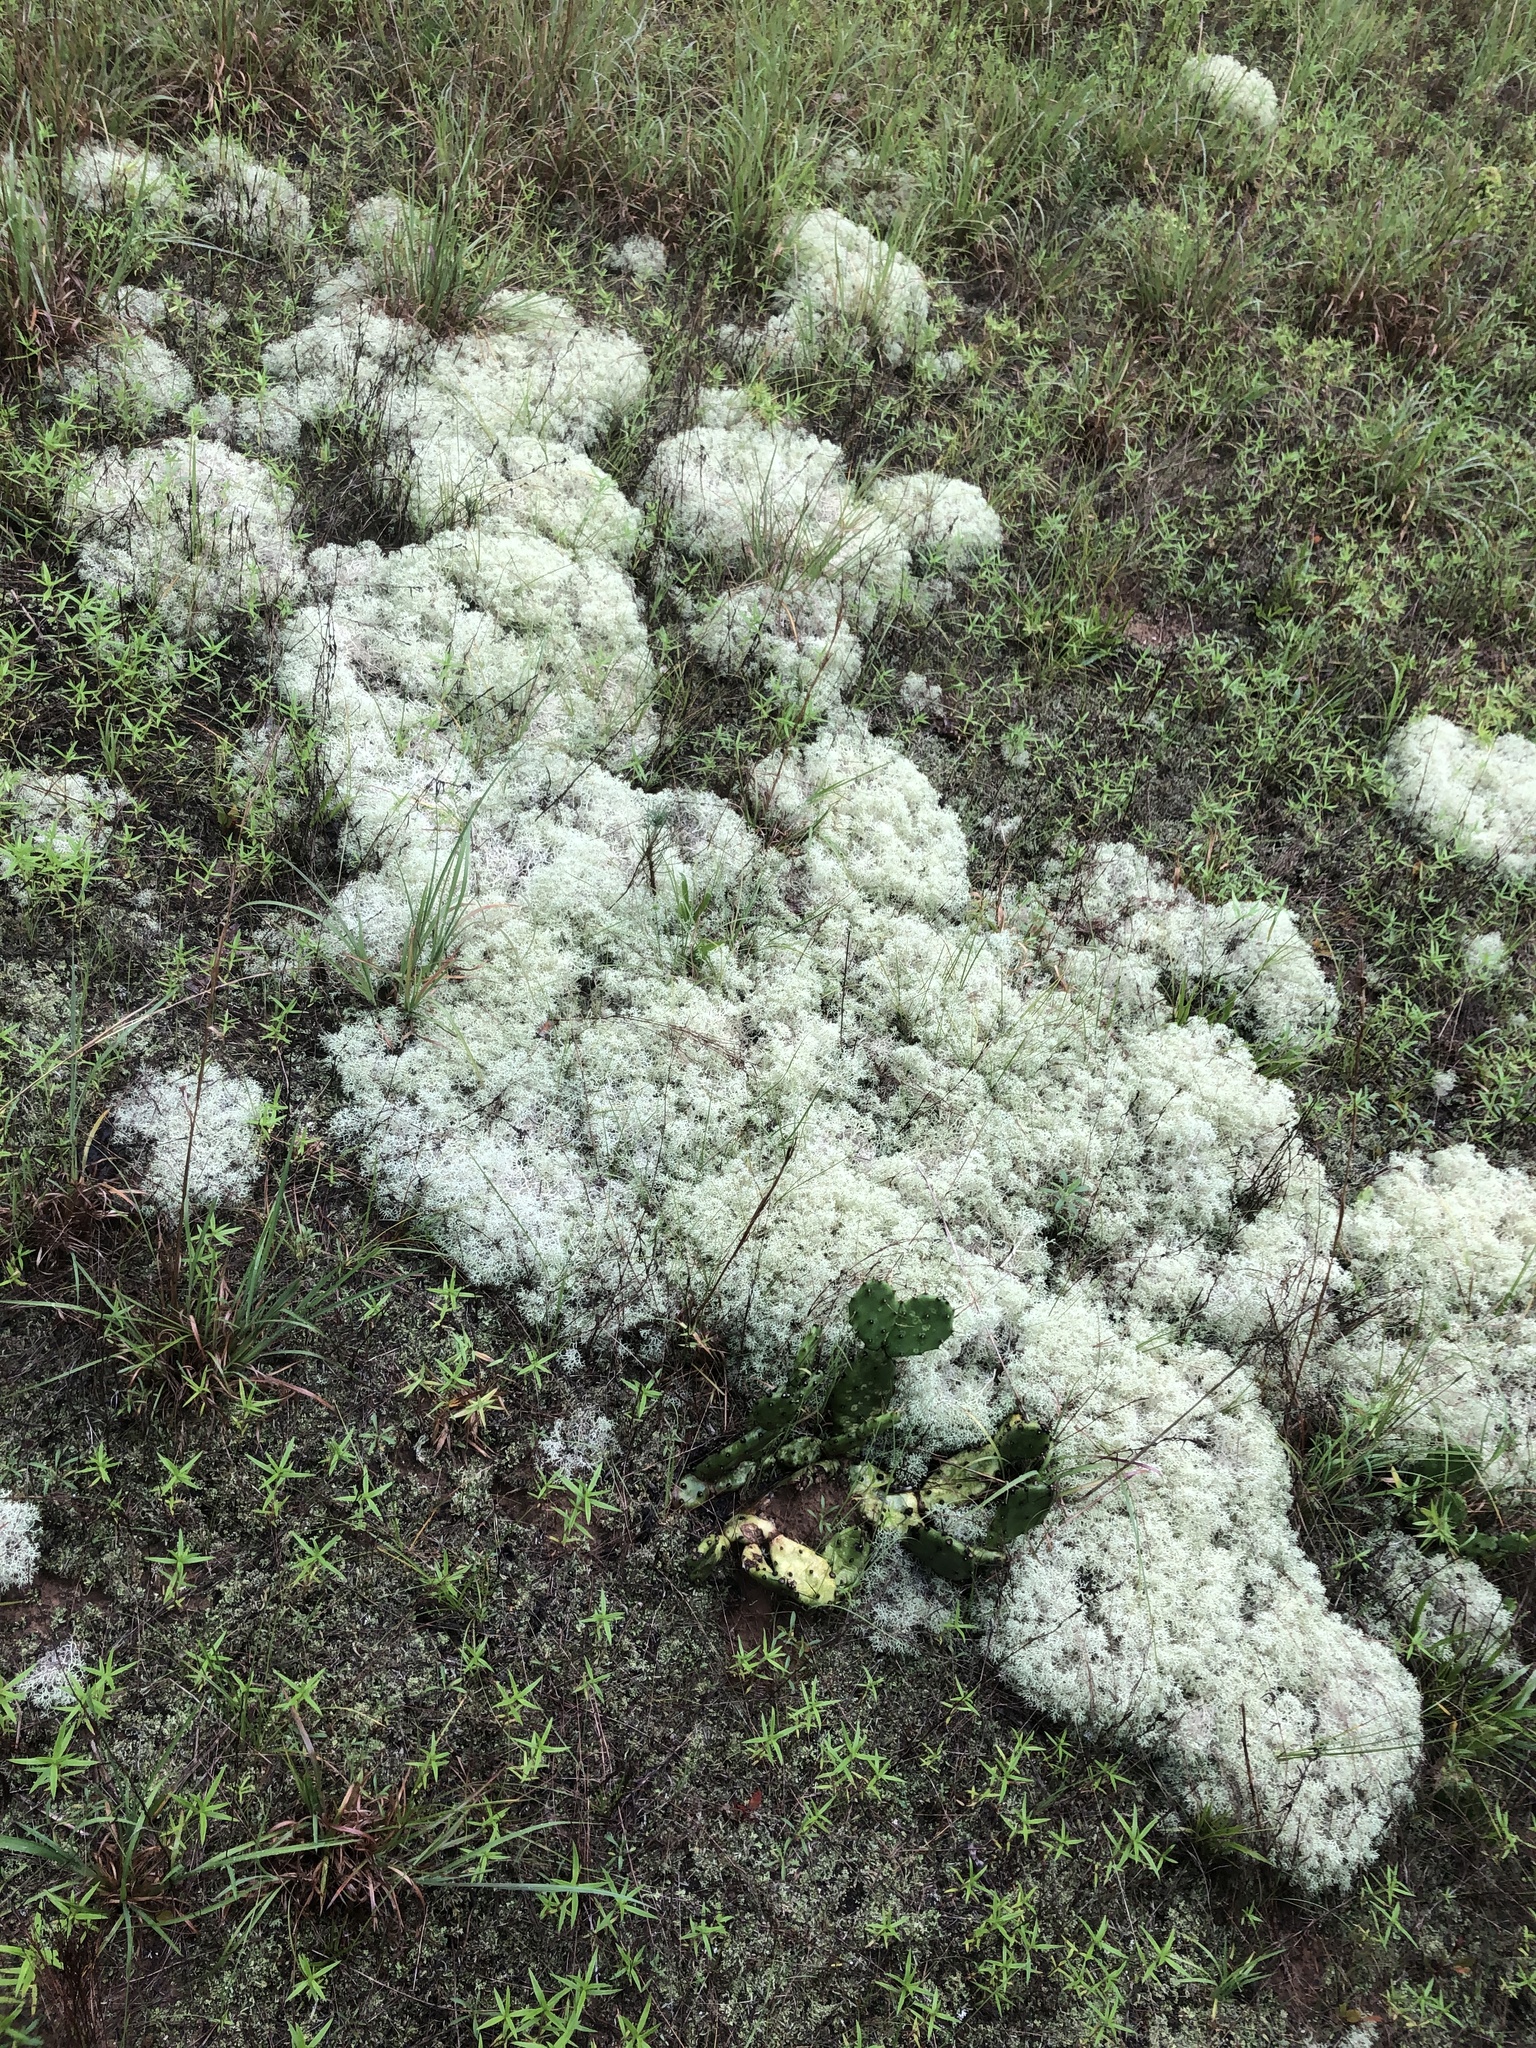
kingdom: Fungi
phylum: Ascomycota
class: Lecanoromycetes
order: Lecanorales
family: Cladoniaceae
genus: Cladonia
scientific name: Cladonia subtenuis
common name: Dixie reindeer lichen
